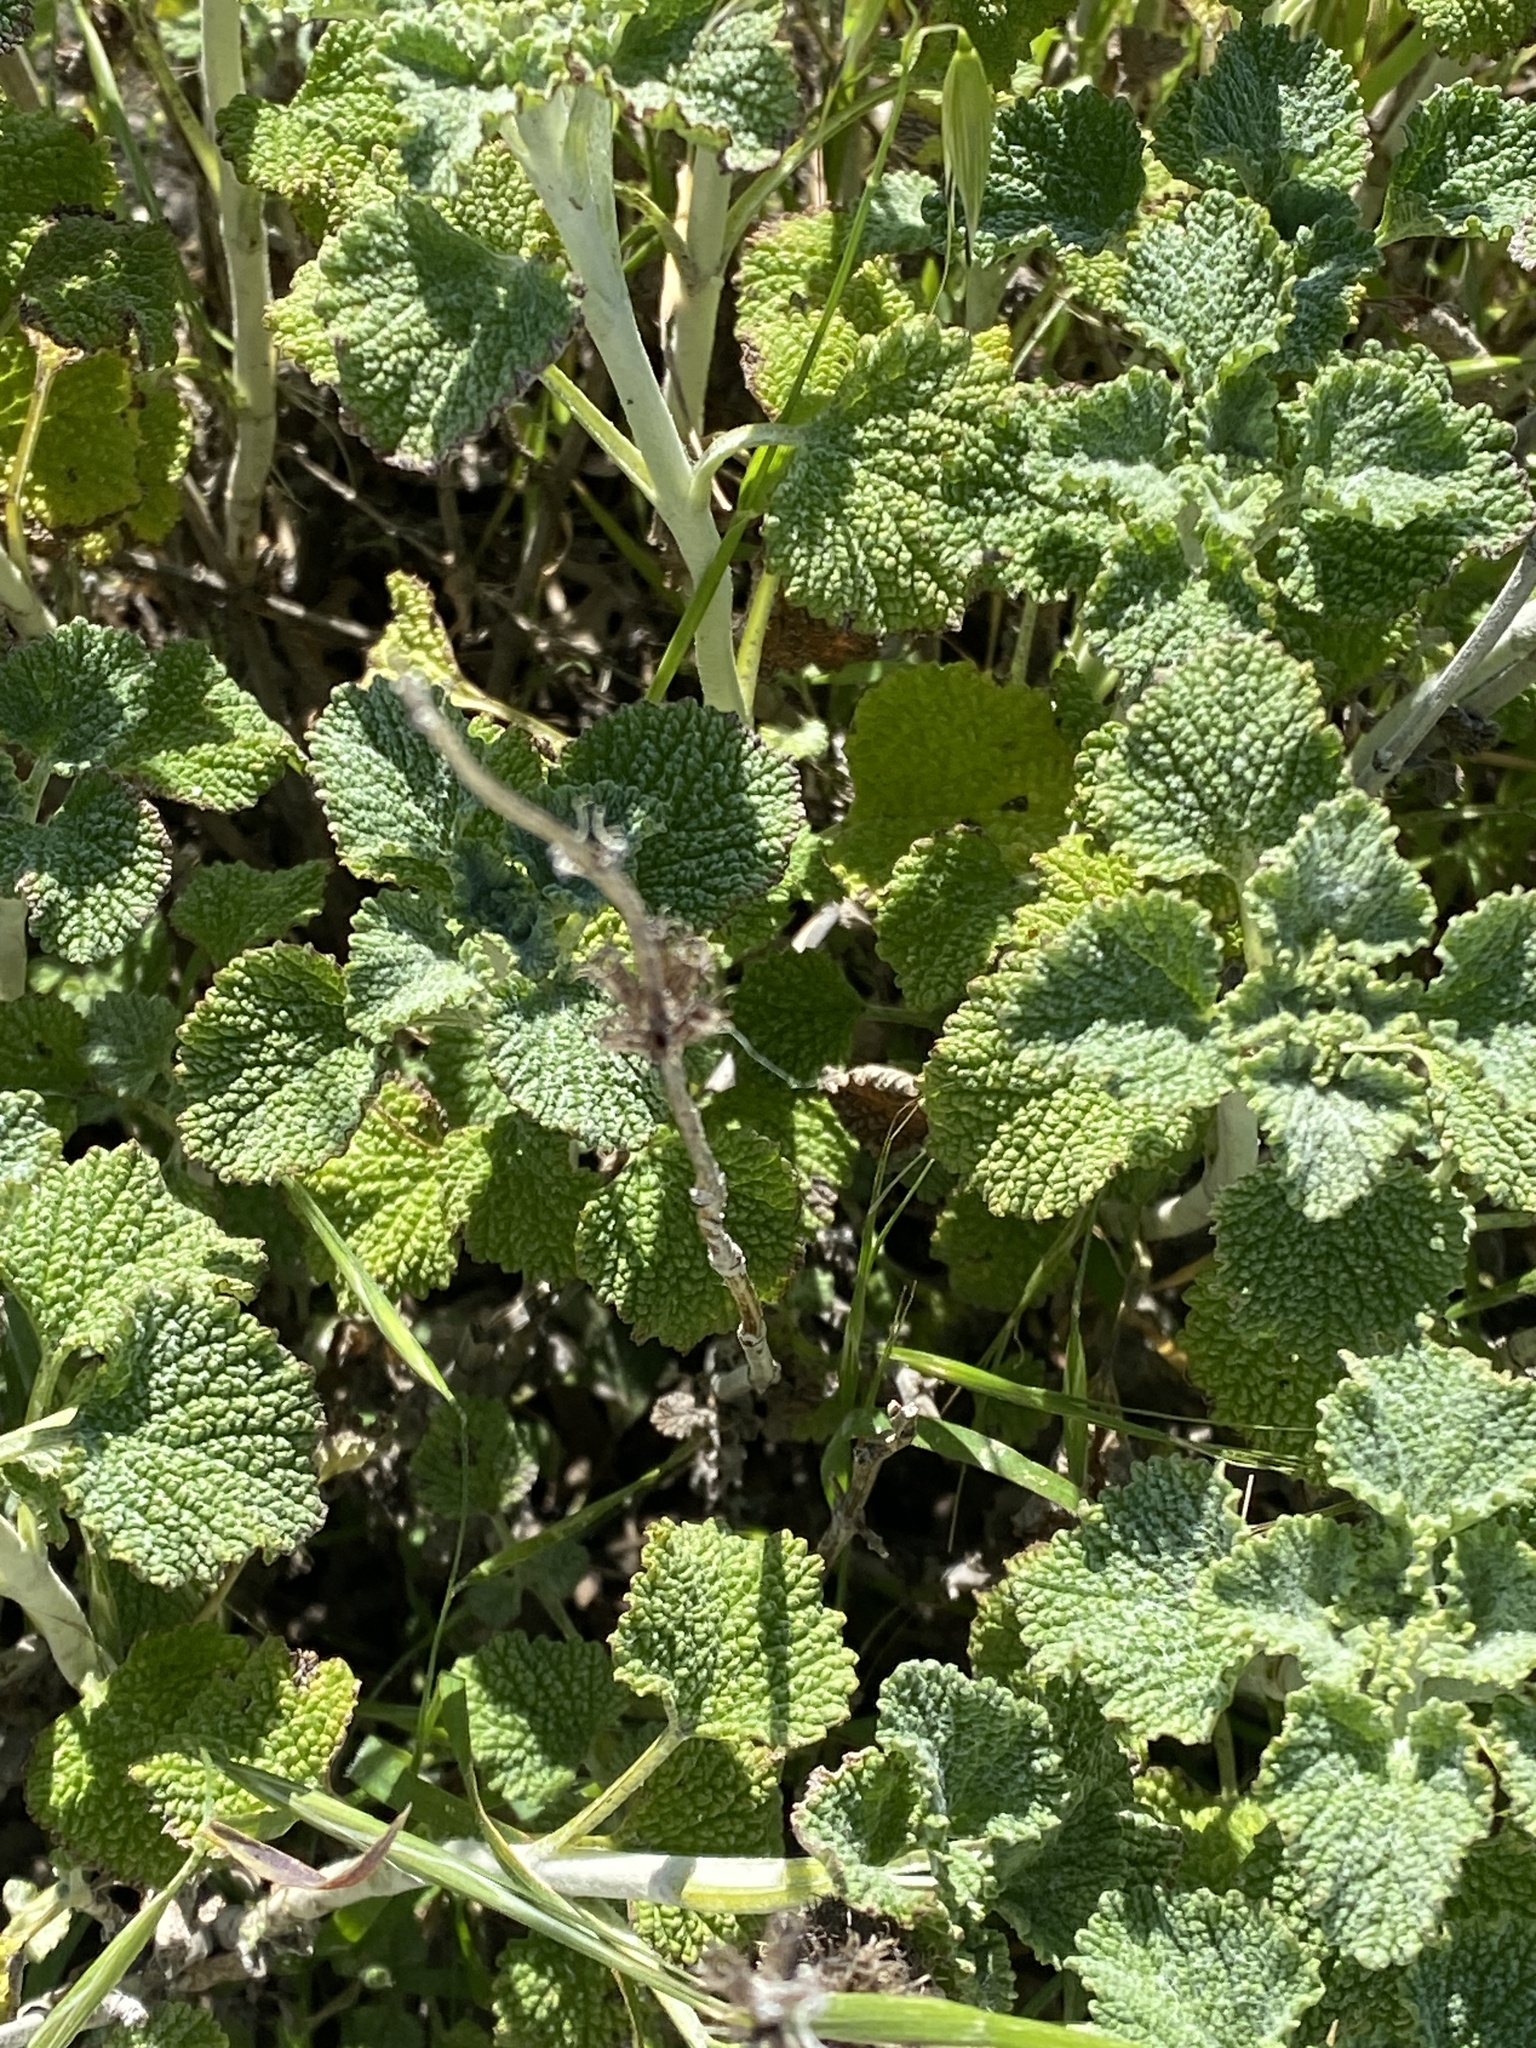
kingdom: Plantae
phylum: Tracheophyta
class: Magnoliopsida
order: Lamiales
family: Lamiaceae
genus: Marrubium
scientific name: Marrubium vulgare
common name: Horehound
